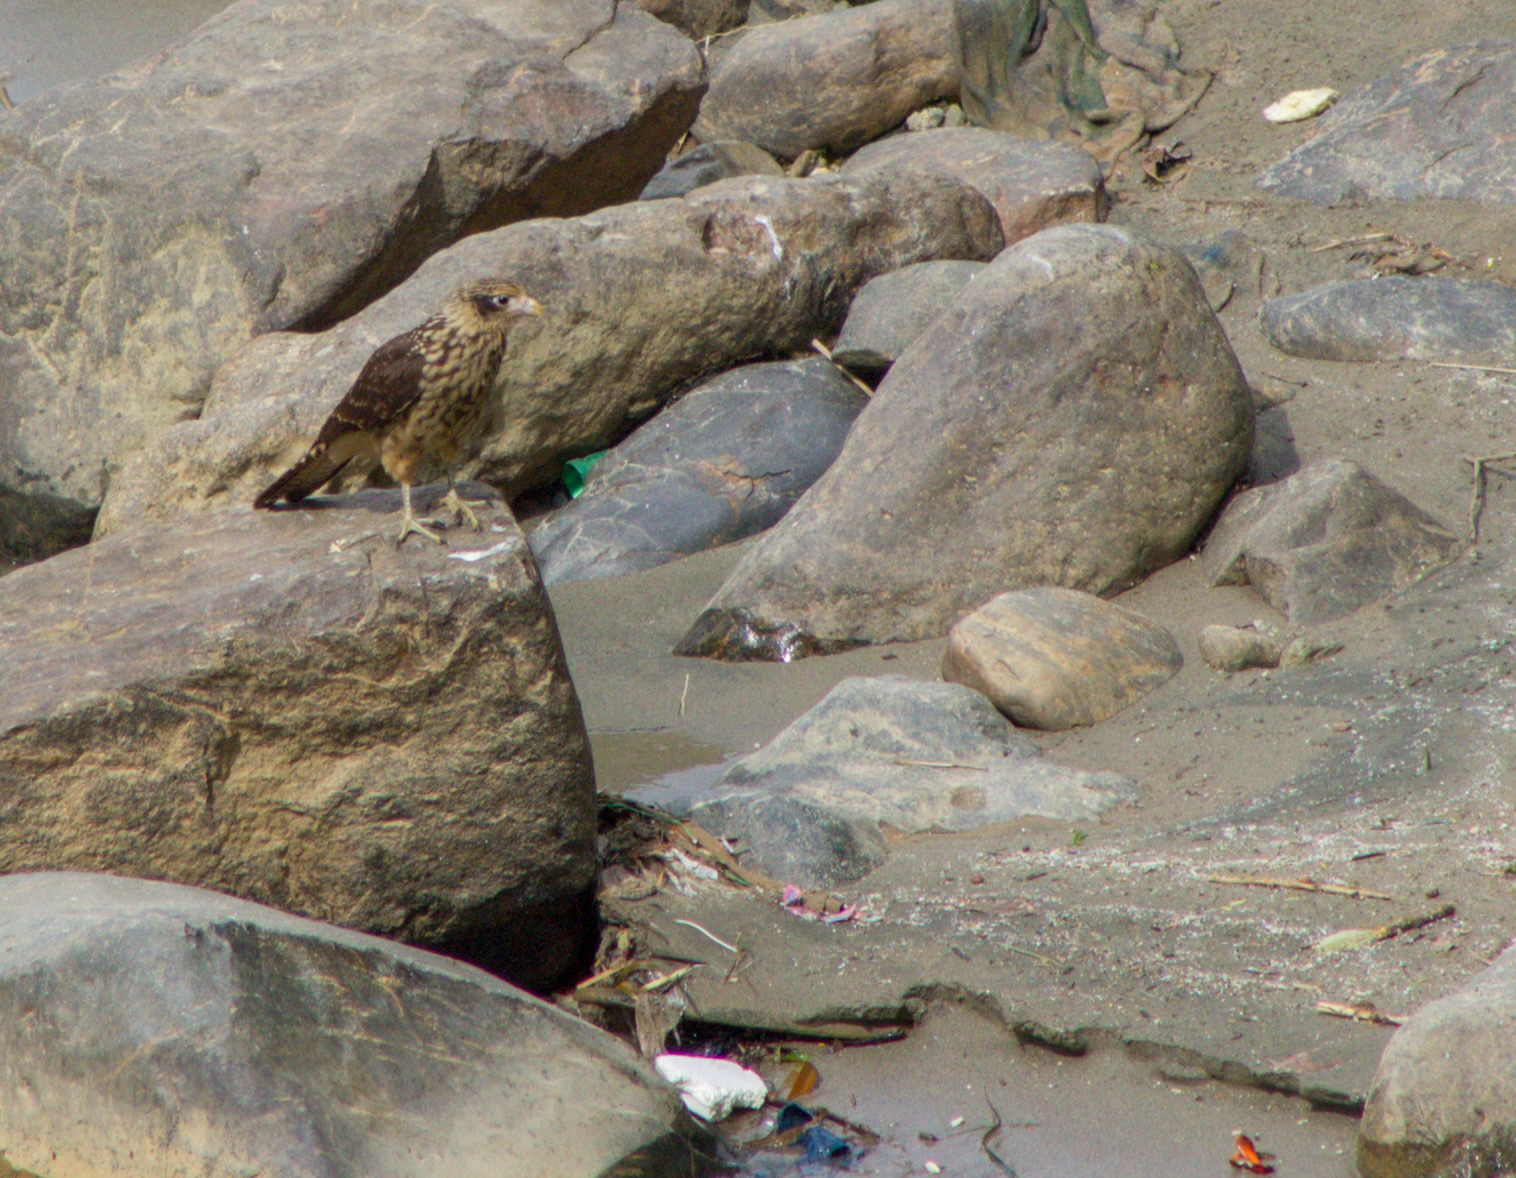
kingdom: Animalia
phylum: Chordata
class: Aves
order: Falconiformes
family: Falconidae
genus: Daptrius
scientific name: Daptrius
